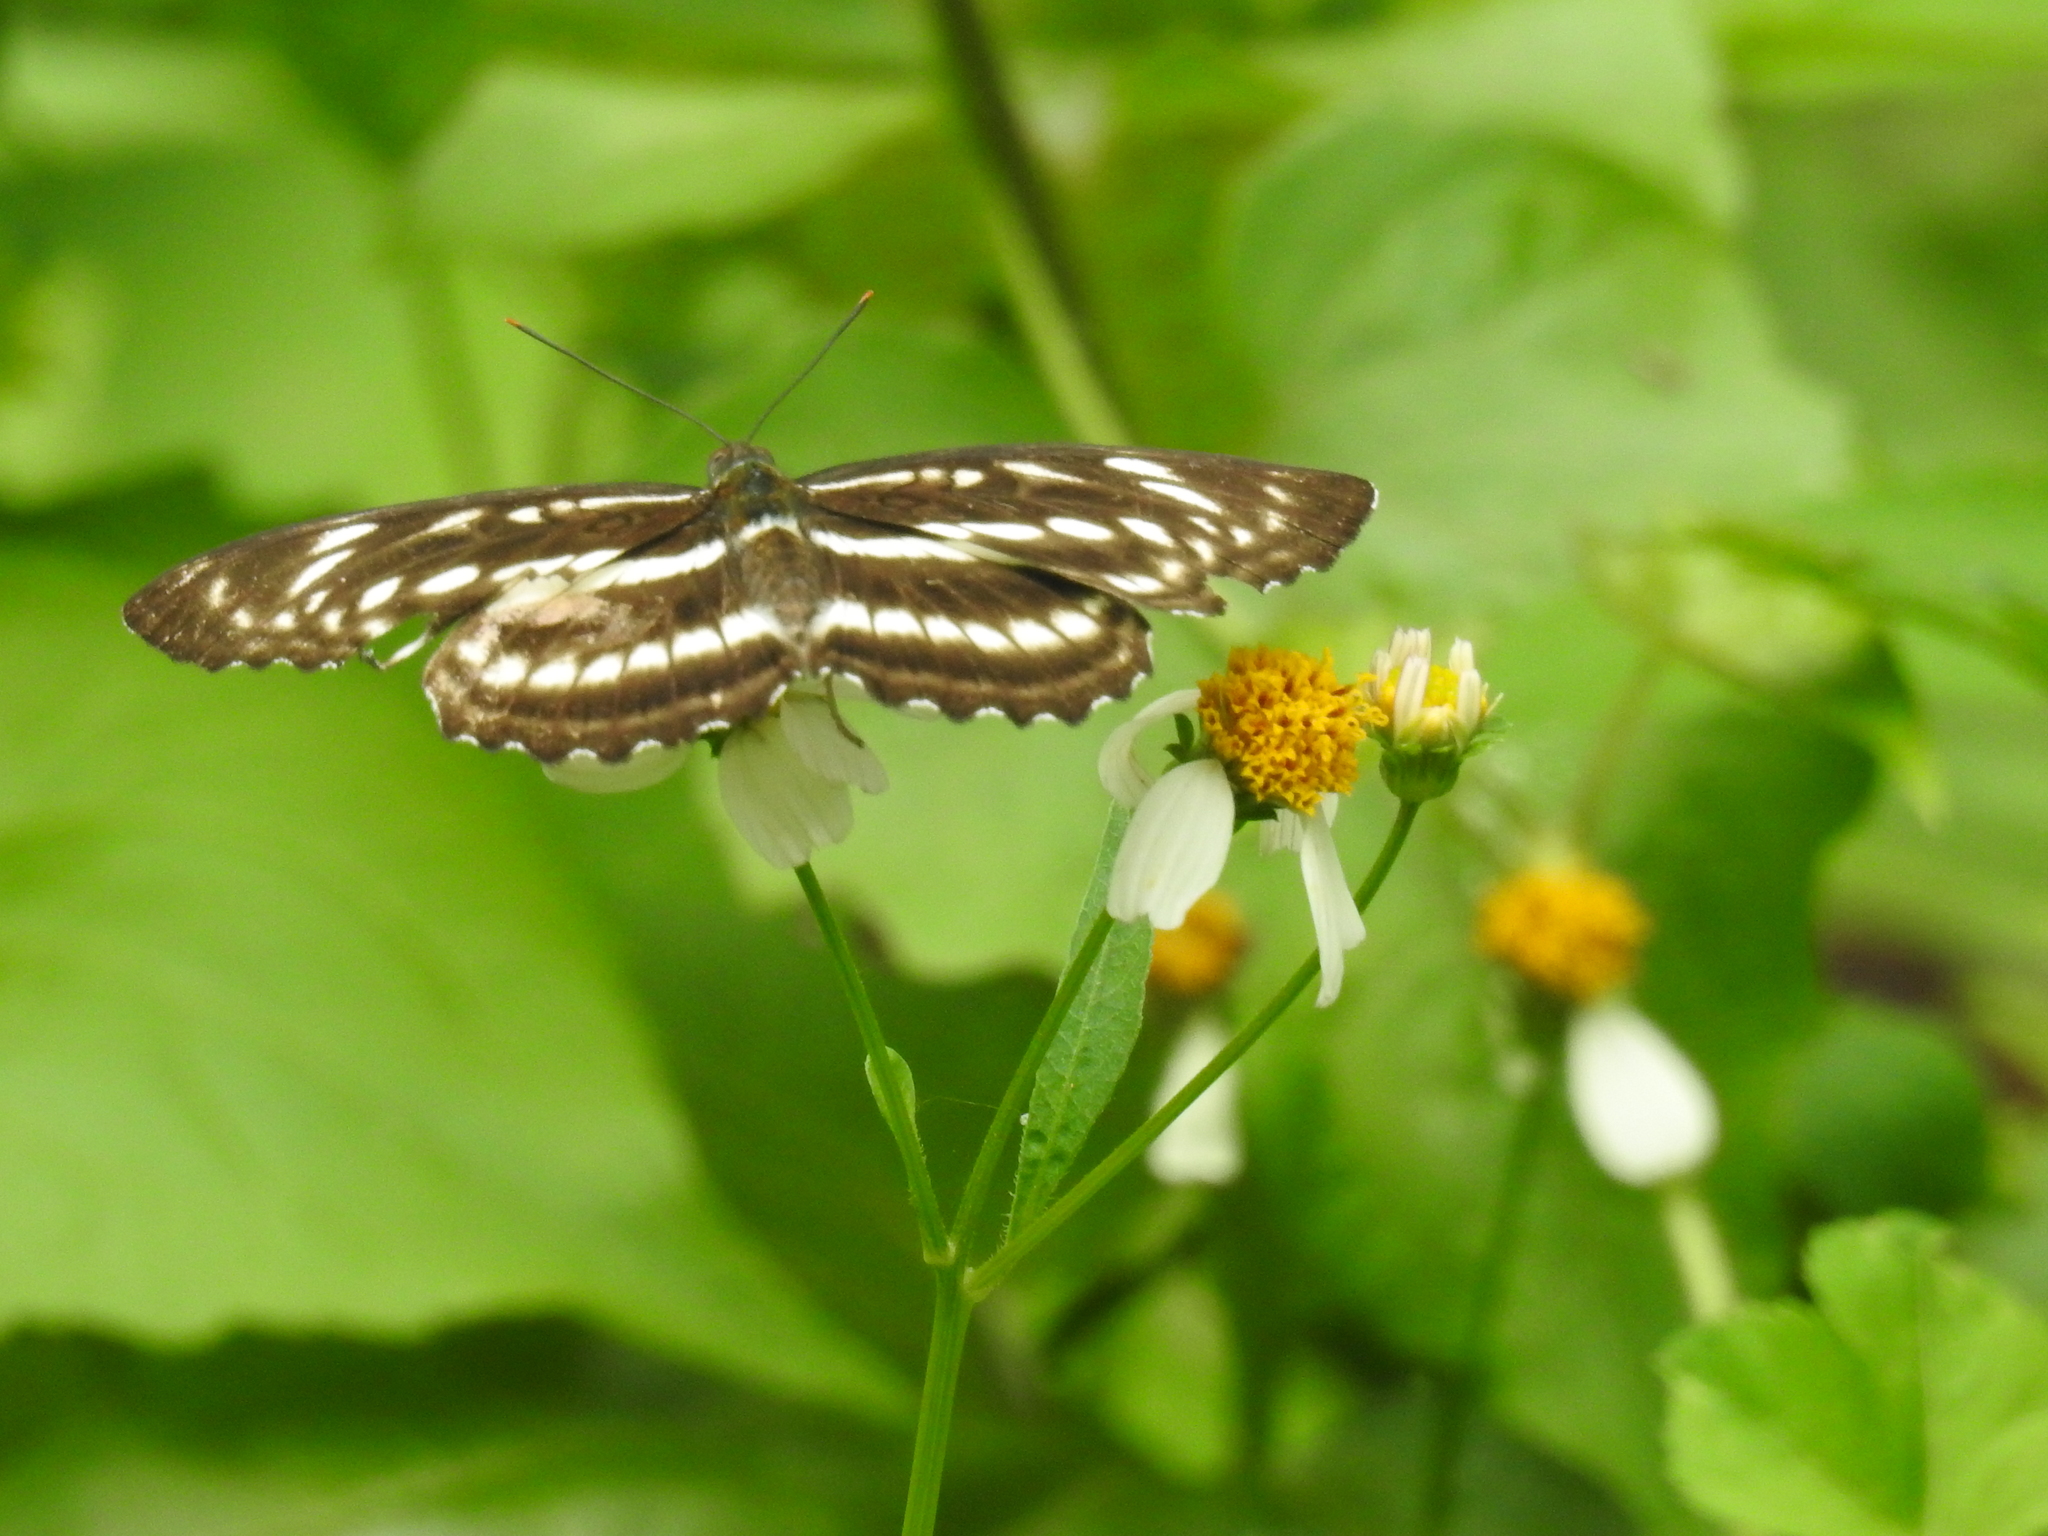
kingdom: Animalia
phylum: Arthropoda
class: Insecta
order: Lepidoptera
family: Nymphalidae
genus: Parathyma
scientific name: Parathyma selenophora
